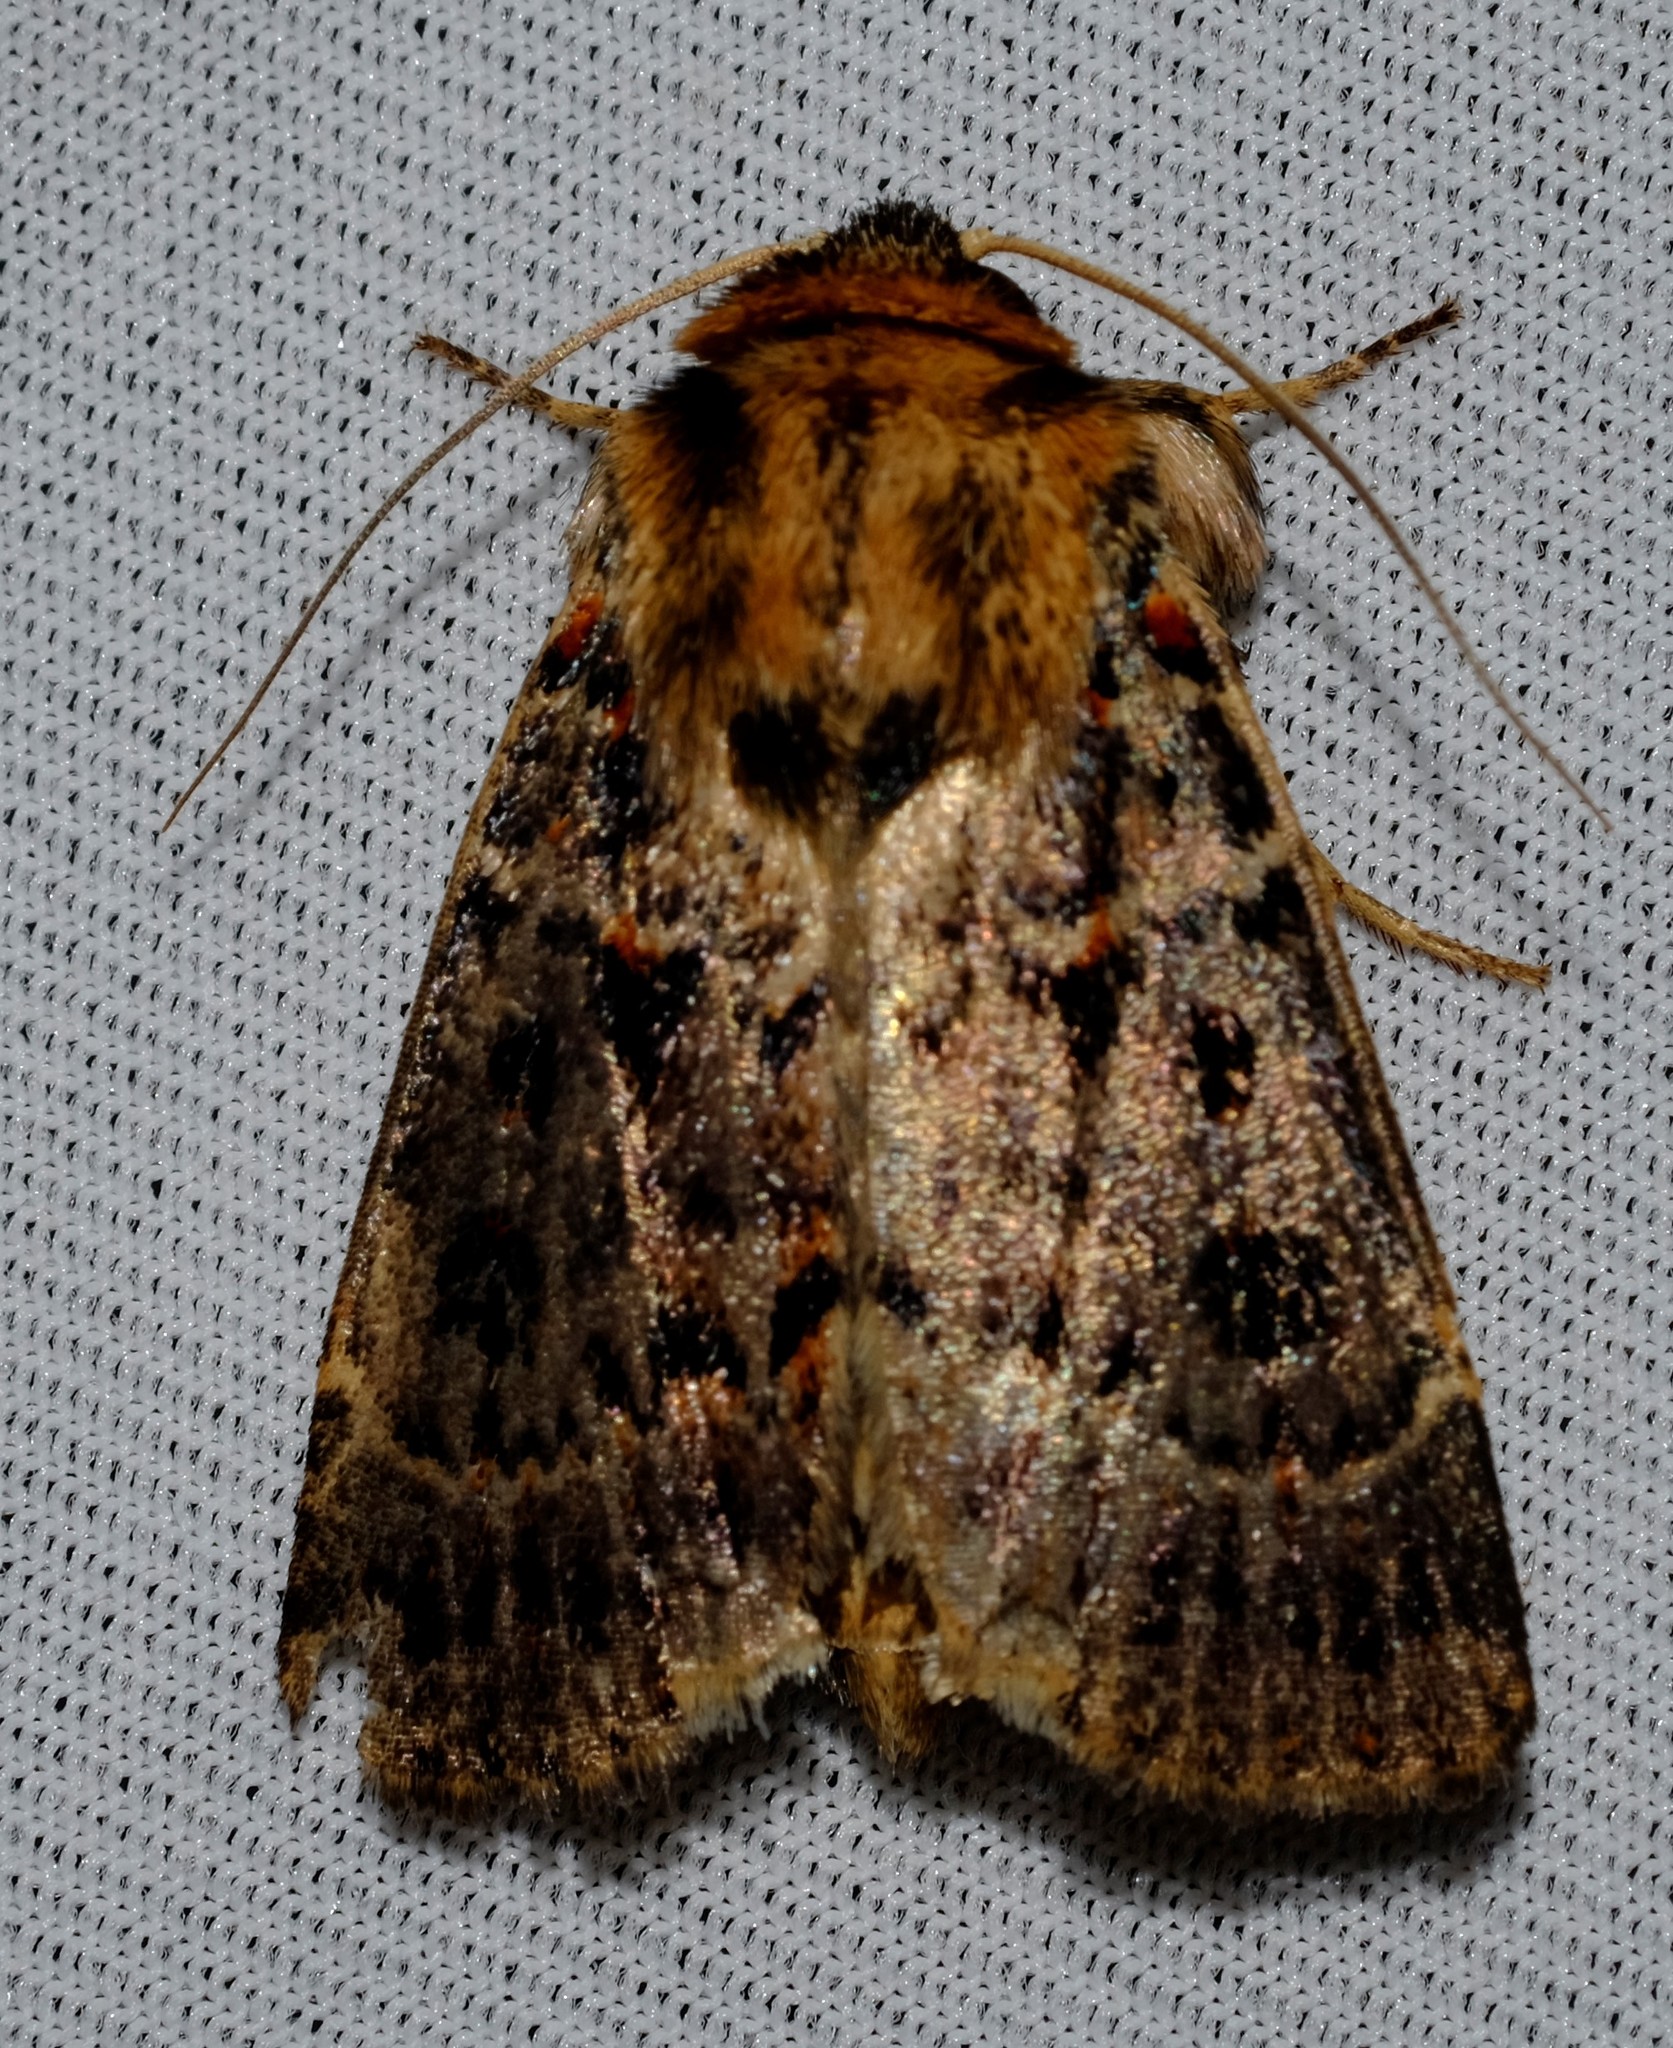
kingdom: Animalia
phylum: Arthropoda
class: Insecta
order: Lepidoptera
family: Noctuidae
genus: Proteuxoa
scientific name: Proteuxoa sanguinipuncta
